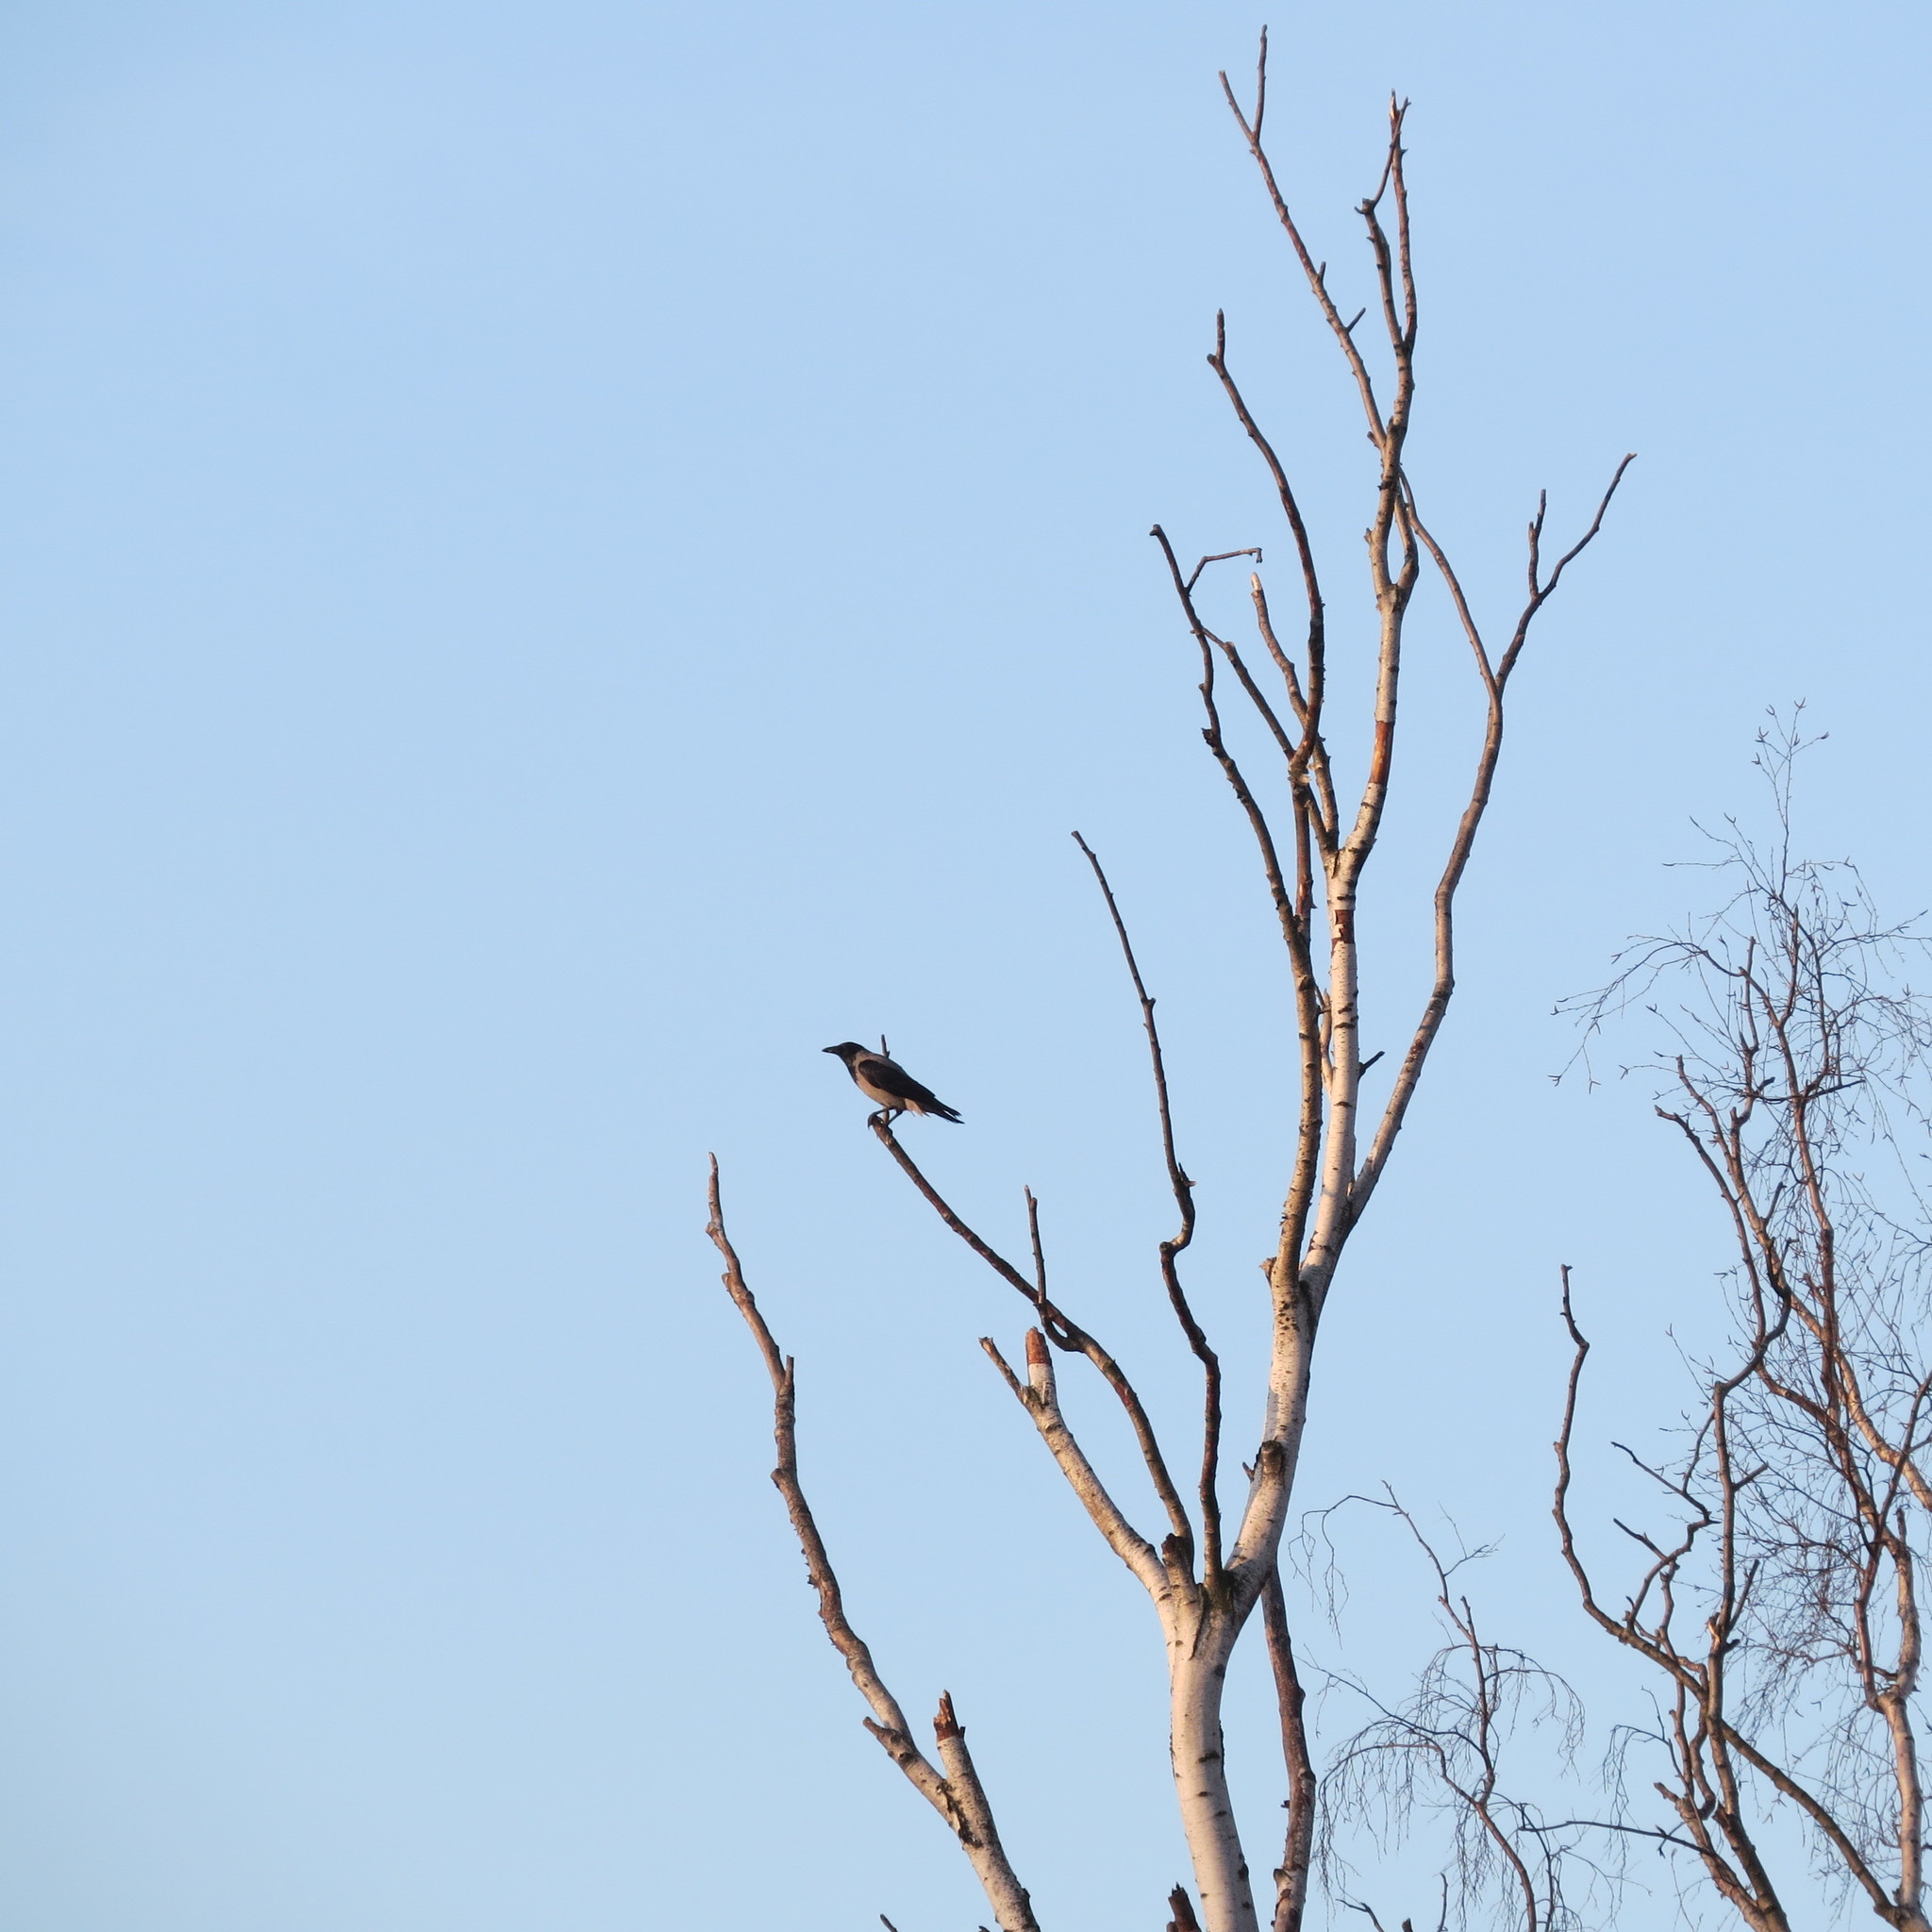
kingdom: Animalia
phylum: Chordata
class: Aves
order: Passeriformes
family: Corvidae
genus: Corvus
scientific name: Corvus cornix
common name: Hooded crow
